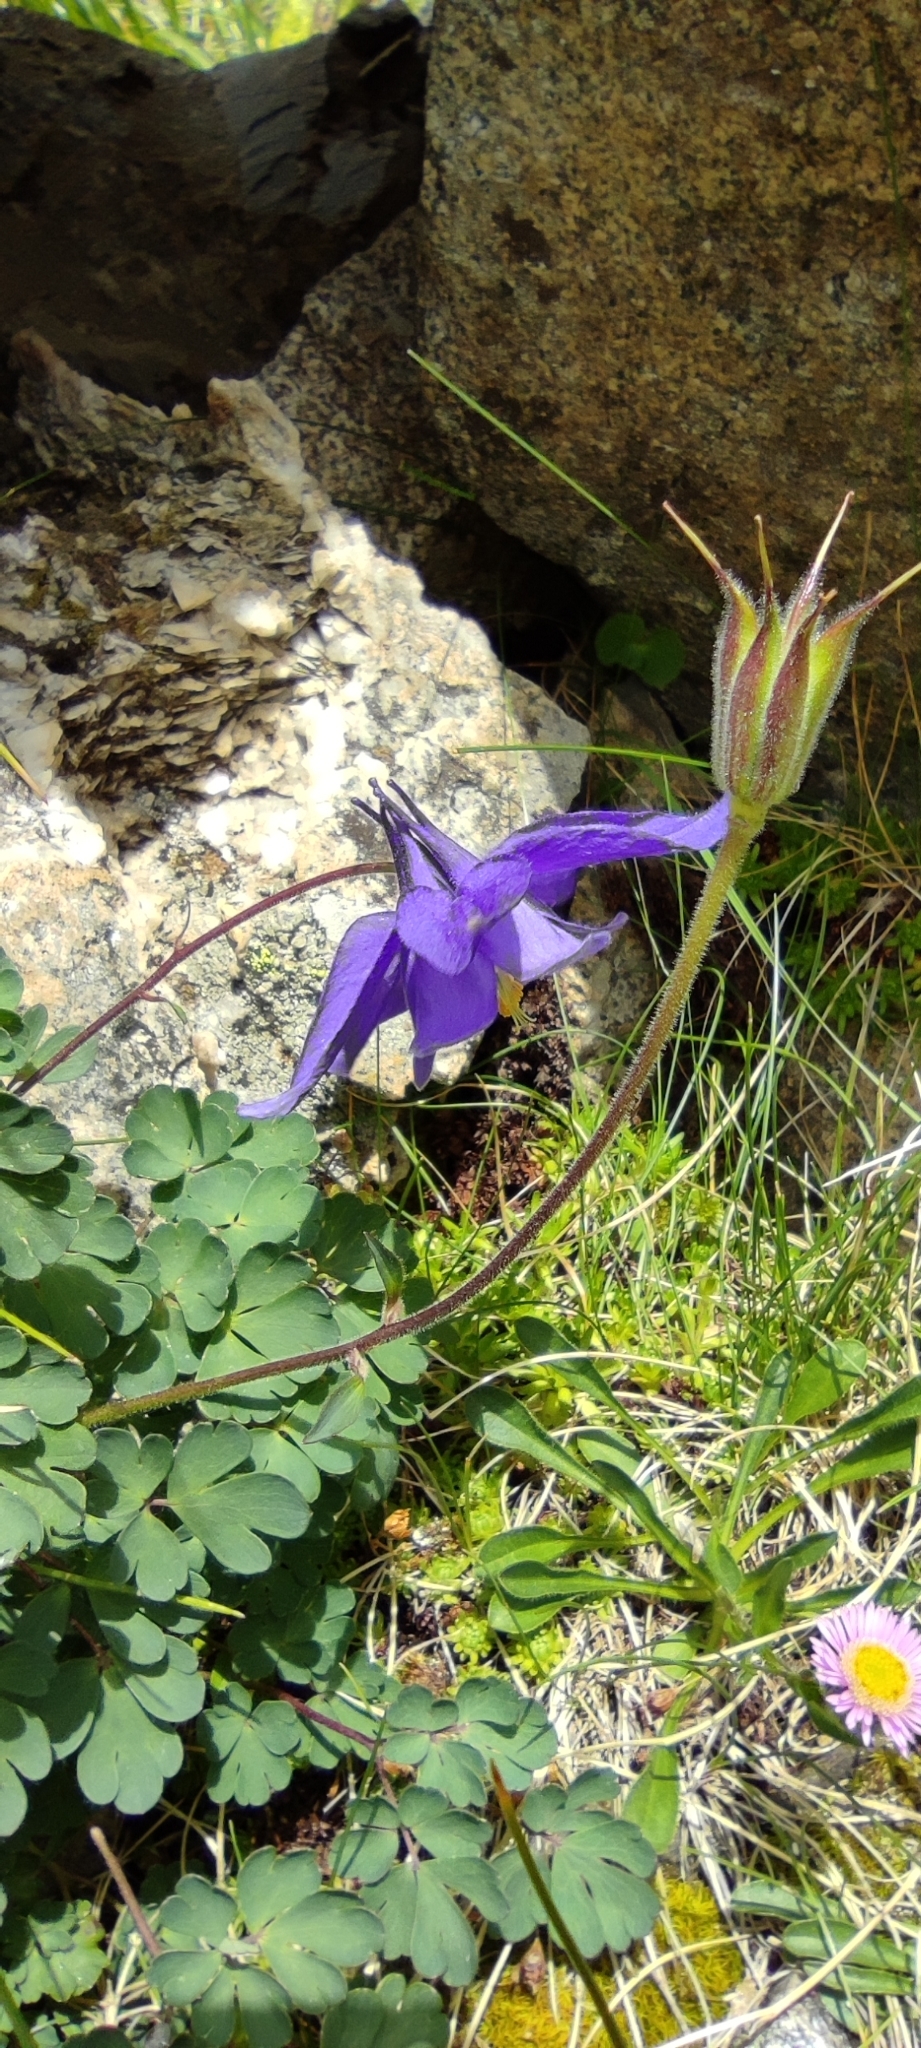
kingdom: Plantae
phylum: Tracheophyta
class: Magnoliopsida
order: Ranunculales
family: Ranunculaceae
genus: Aquilegia
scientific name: Aquilegia pyrenaica
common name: Pyrenean columbine
